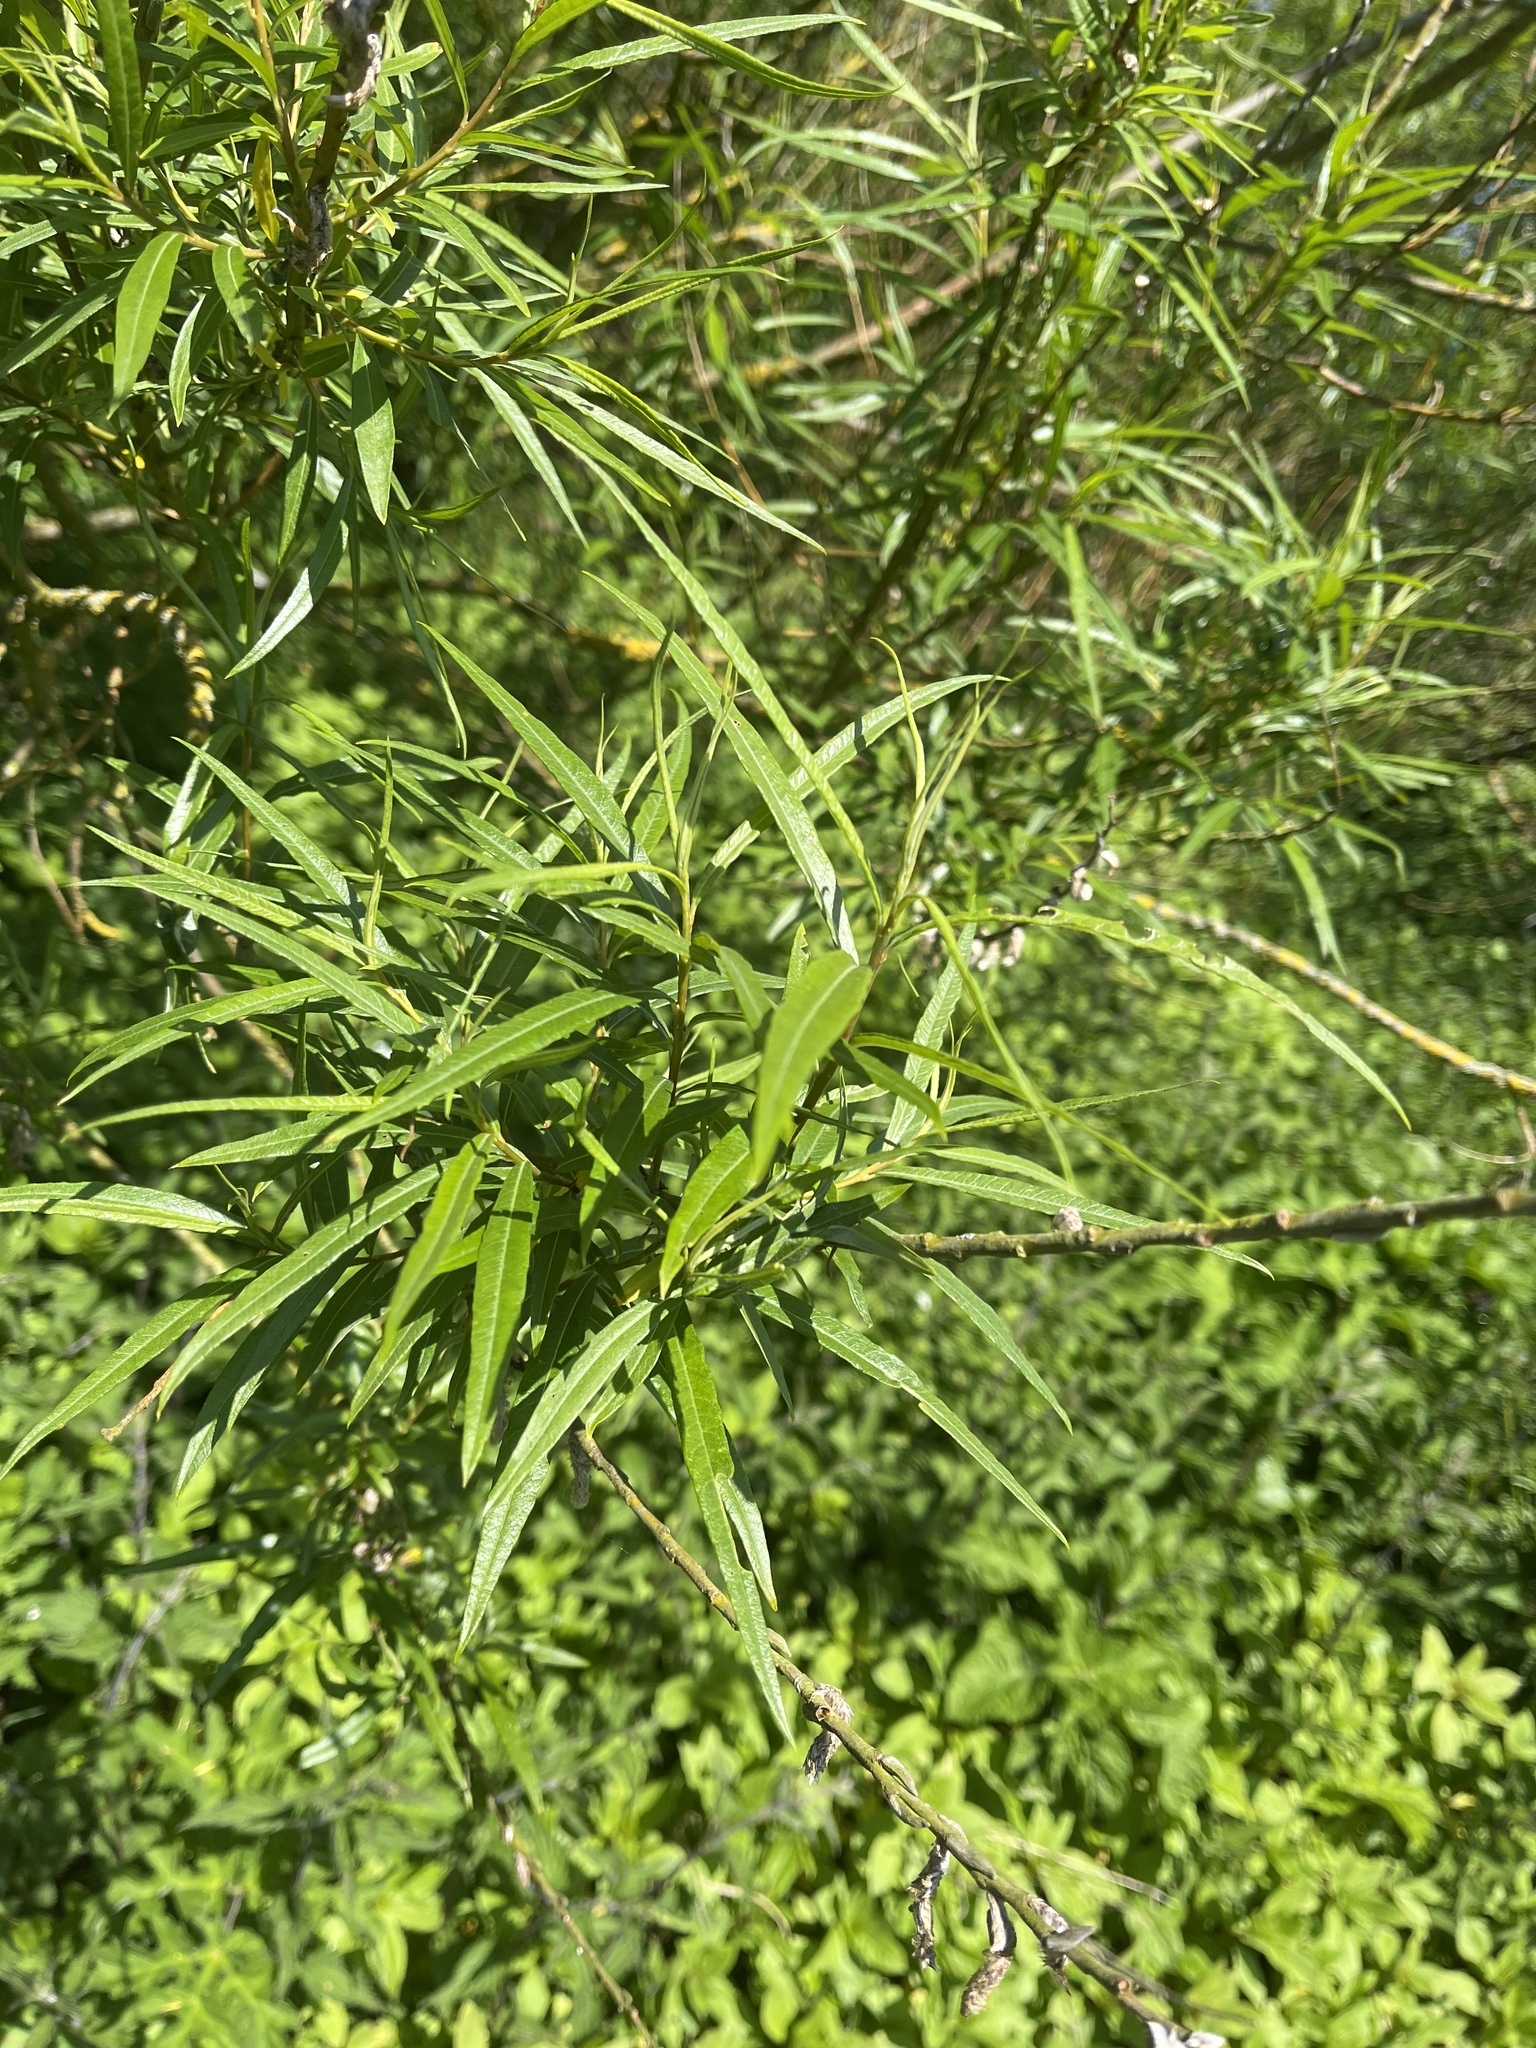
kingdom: Plantae
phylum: Tracheophyta
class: Magnoliopsida
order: Malpighiales
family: Salicaceae
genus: Salix
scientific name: Salix viminalis
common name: Osier
